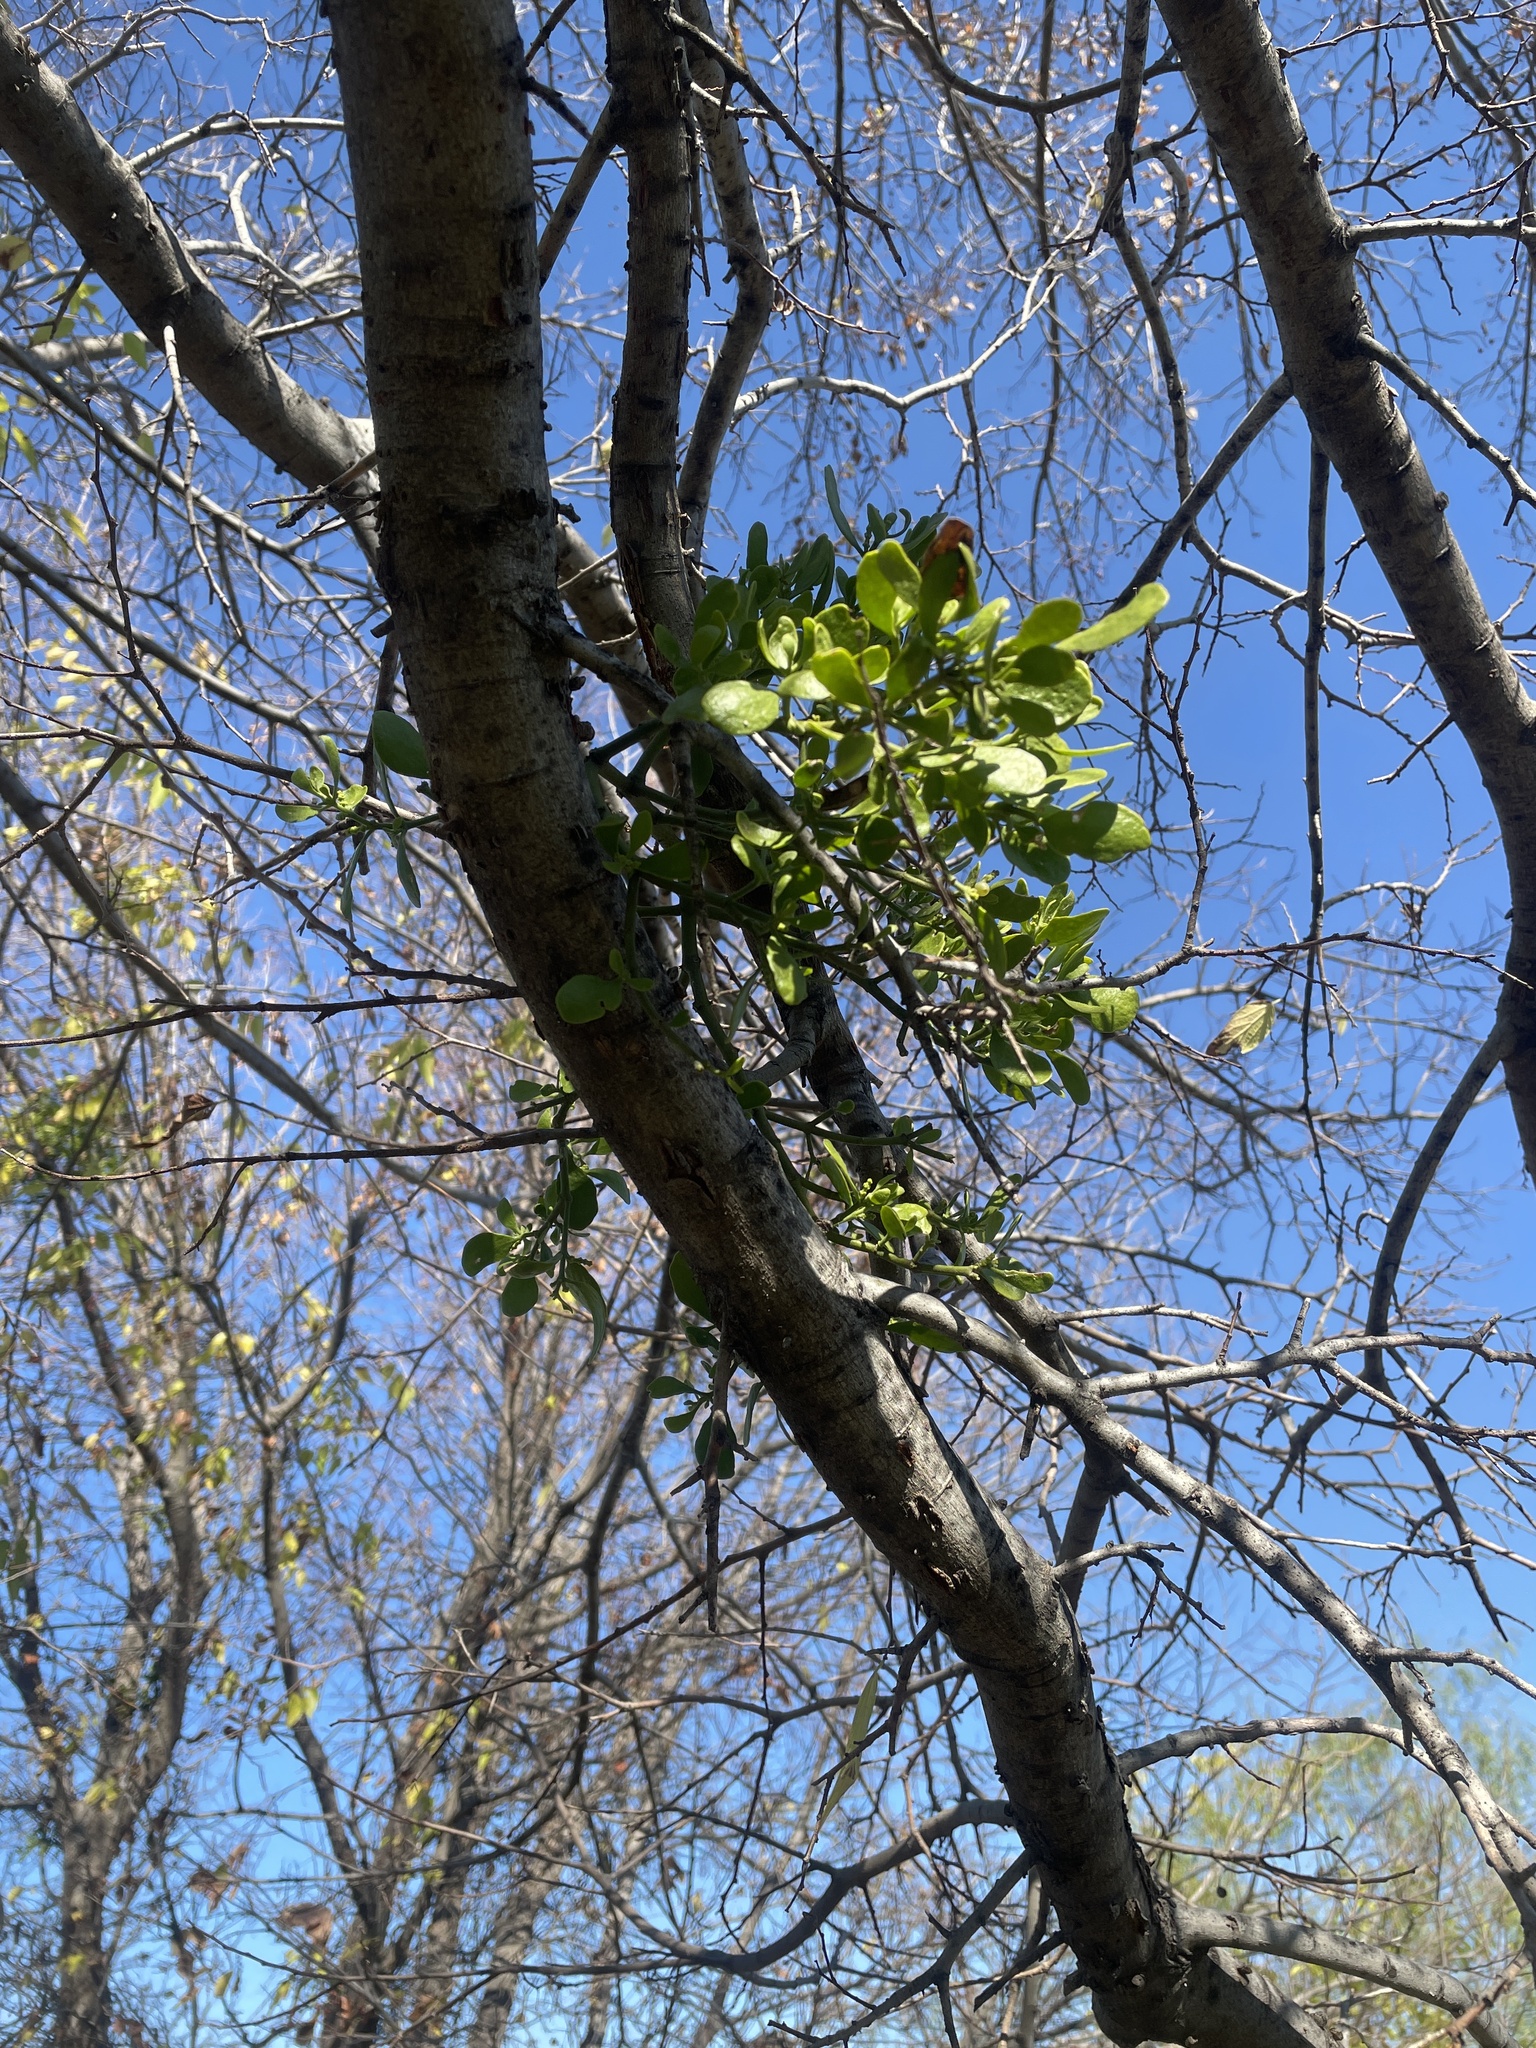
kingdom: Plantae
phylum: Tracheophyta
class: Magnoliopsida
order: Santalales
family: Viscaceae
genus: Phoradendron
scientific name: Phoradendron leucarpum
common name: Pacific mistletoe
